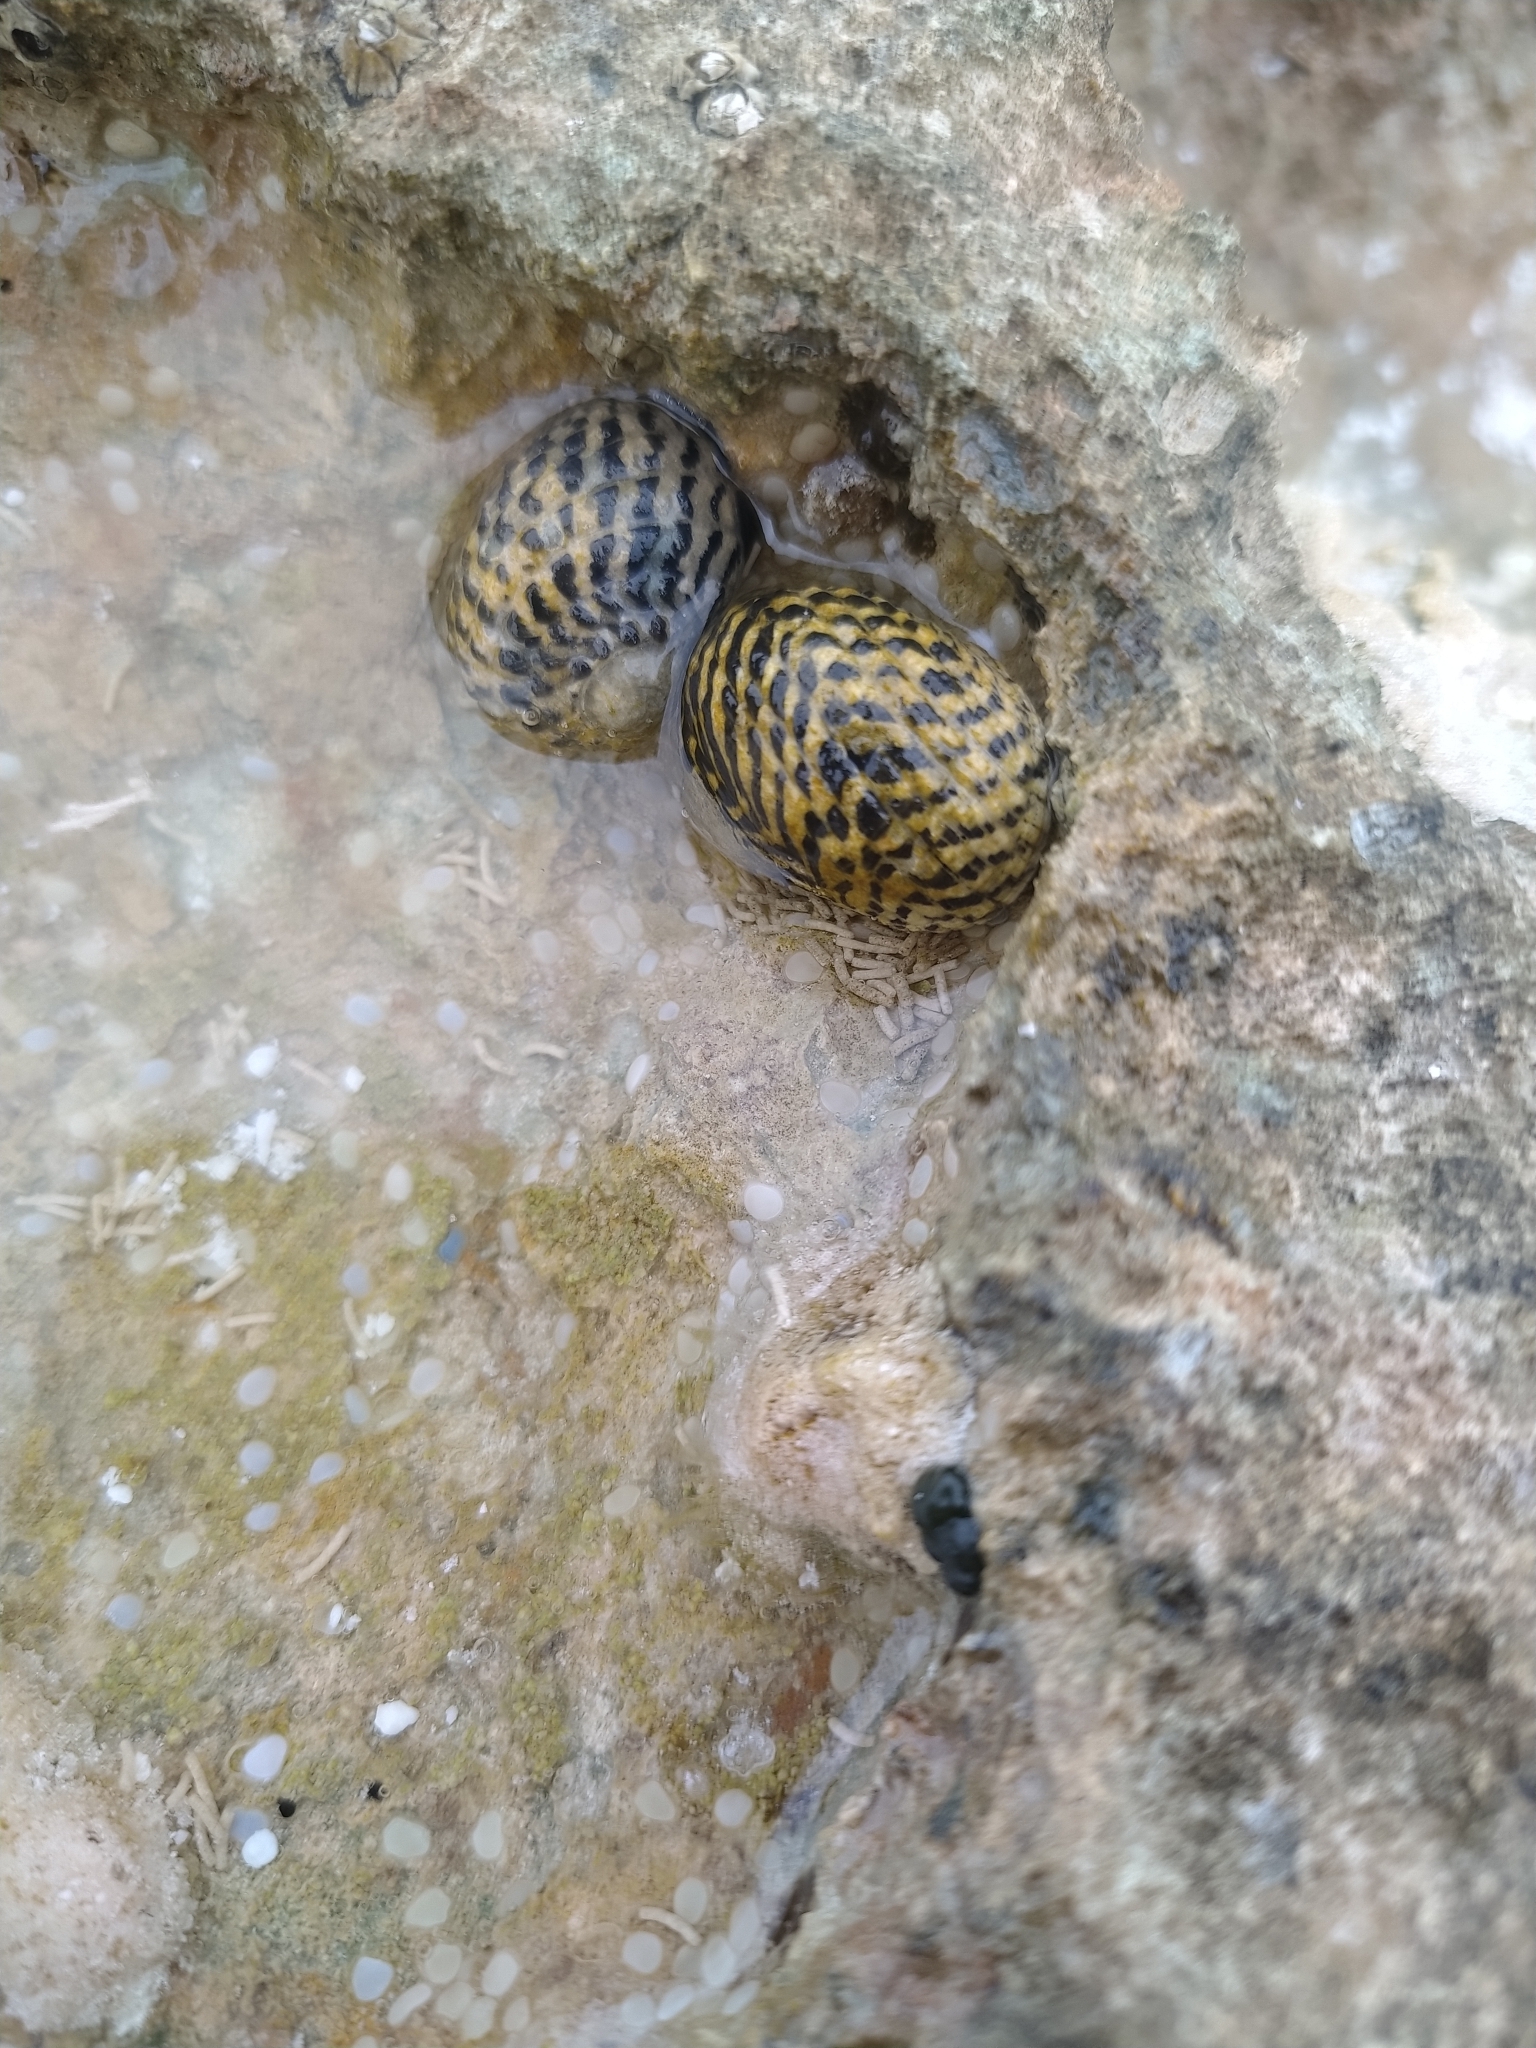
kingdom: Animalia
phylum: Mollusca
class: Gastropoda
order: Cycloneritida
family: Neritidae
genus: Nerita
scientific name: Nerita tessellata
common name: Checkered nerite
